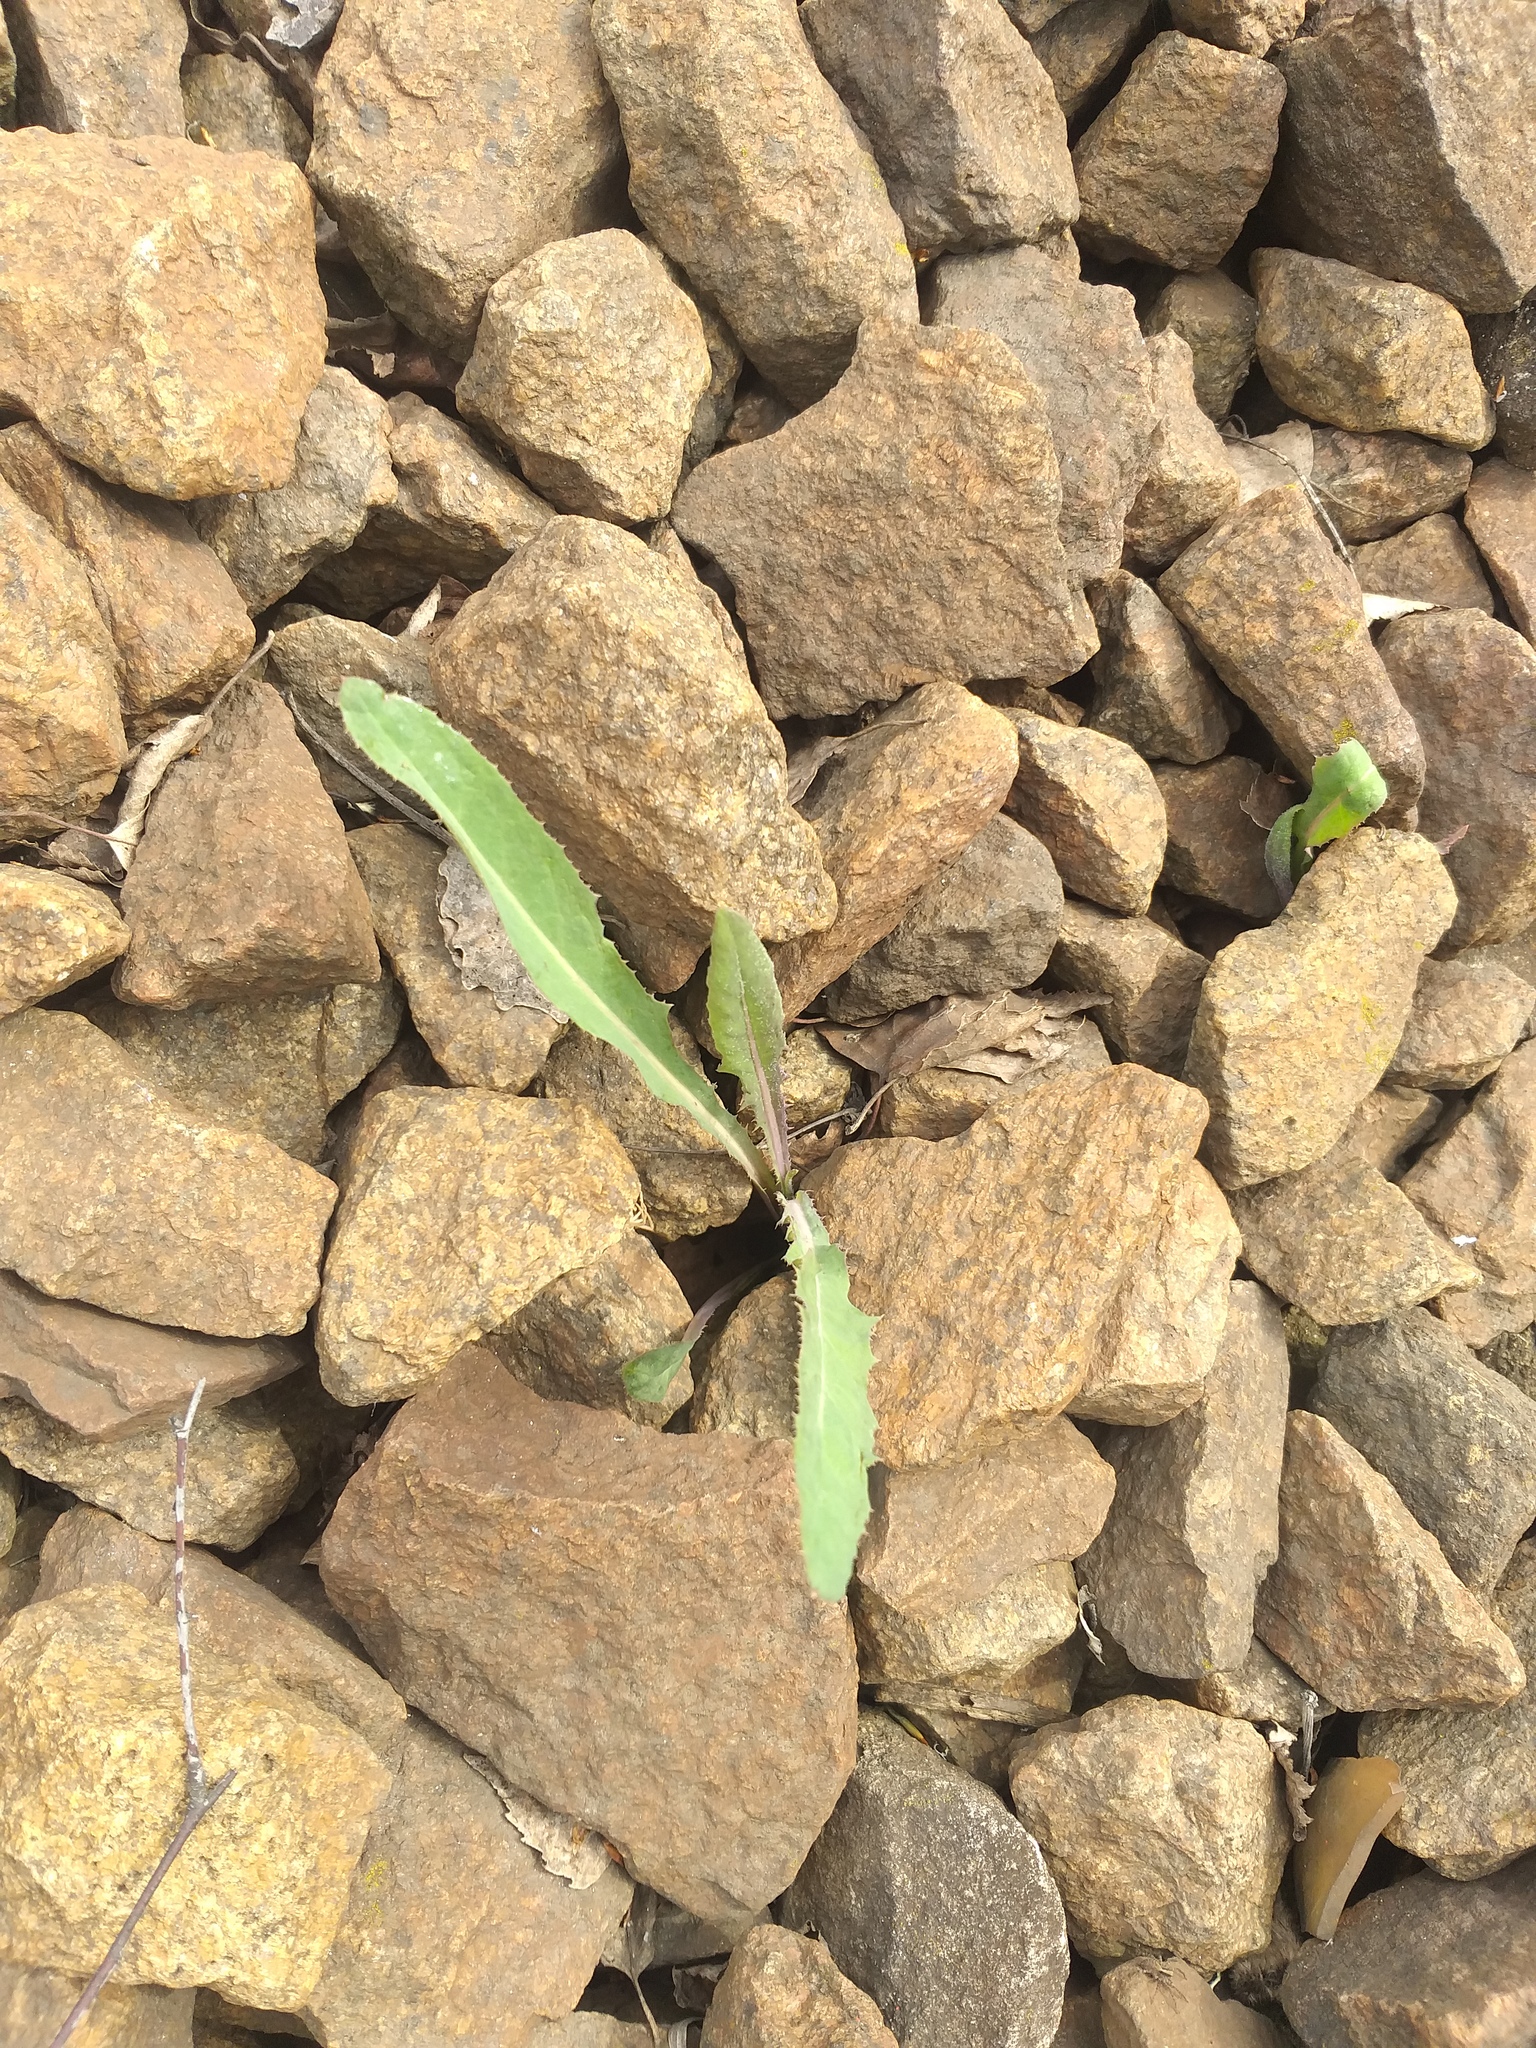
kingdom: Plantae
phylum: Tracheophyta
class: Magnoliopsida
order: Asterales
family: Asteraceae
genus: Sonchus
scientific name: Sonchus arvensis
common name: Perennial sow-thistle
